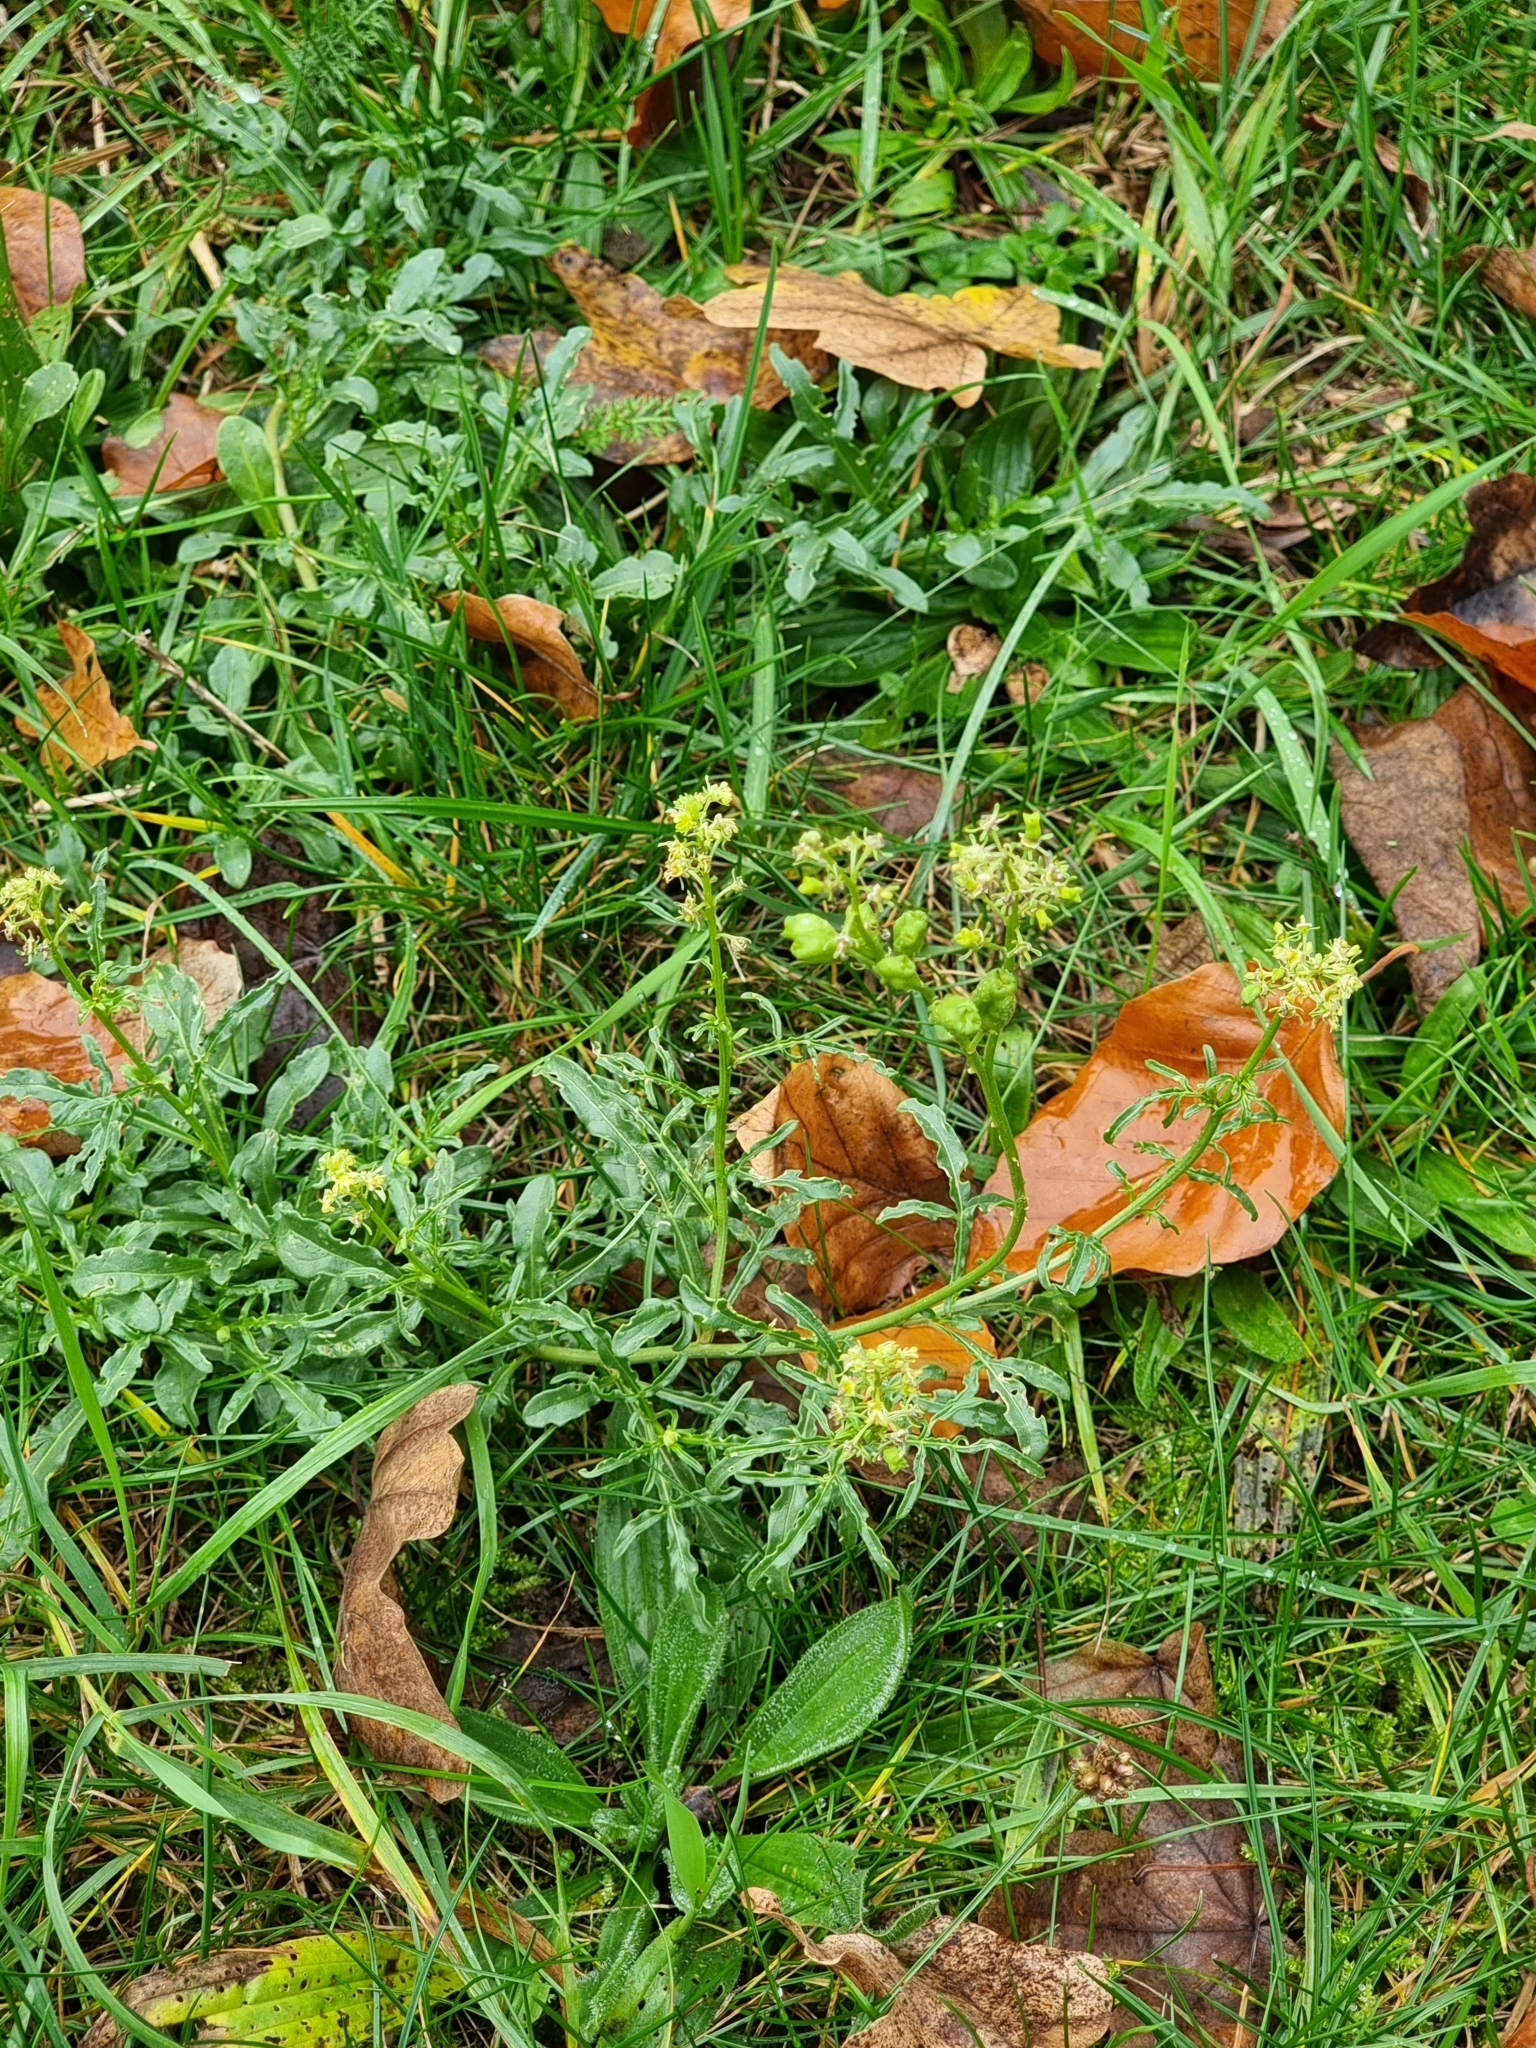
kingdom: Plantae
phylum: Tracheophyta
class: Magnoliopsida
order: Brassicales
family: Resedaceae
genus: Reseda
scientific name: Reseda lutea
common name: Wild mignonette
